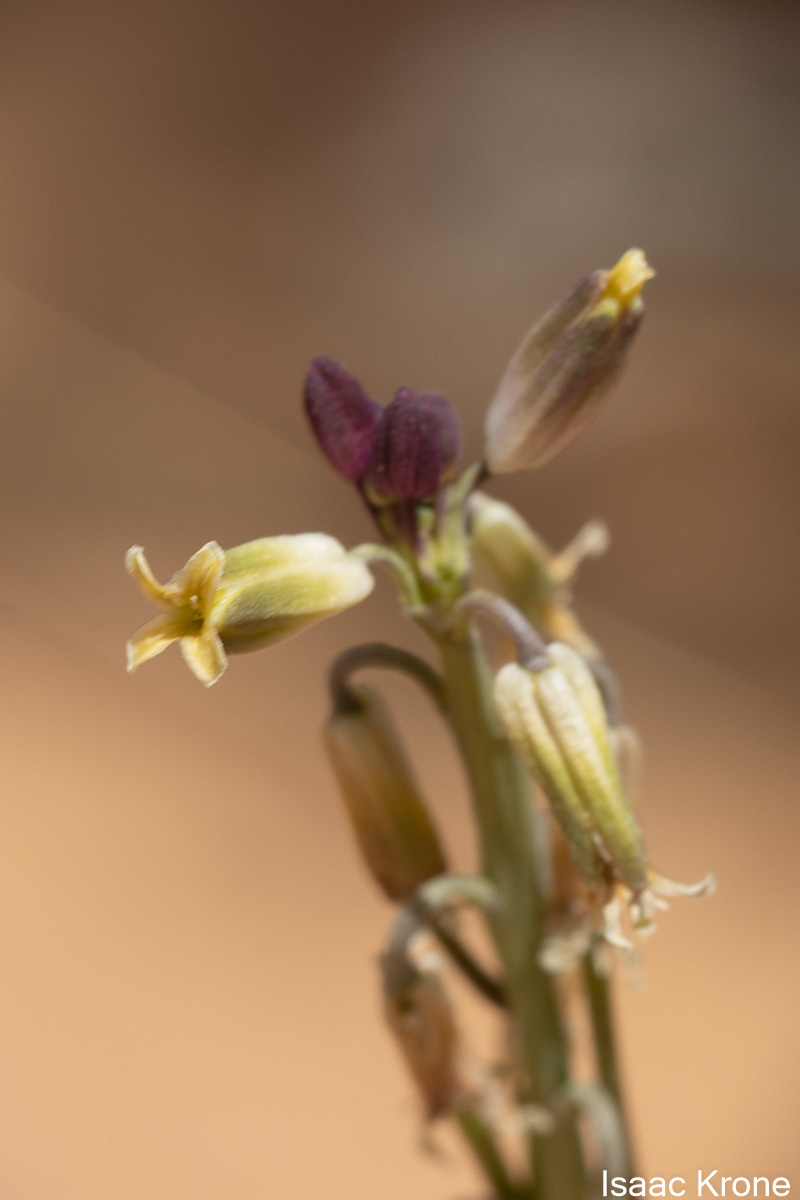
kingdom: Plantae
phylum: Tracheophyta
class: Magnoliopsida
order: Brassicales
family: Brassicaceae
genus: Streptanthus
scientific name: Streptanthus longirostris
